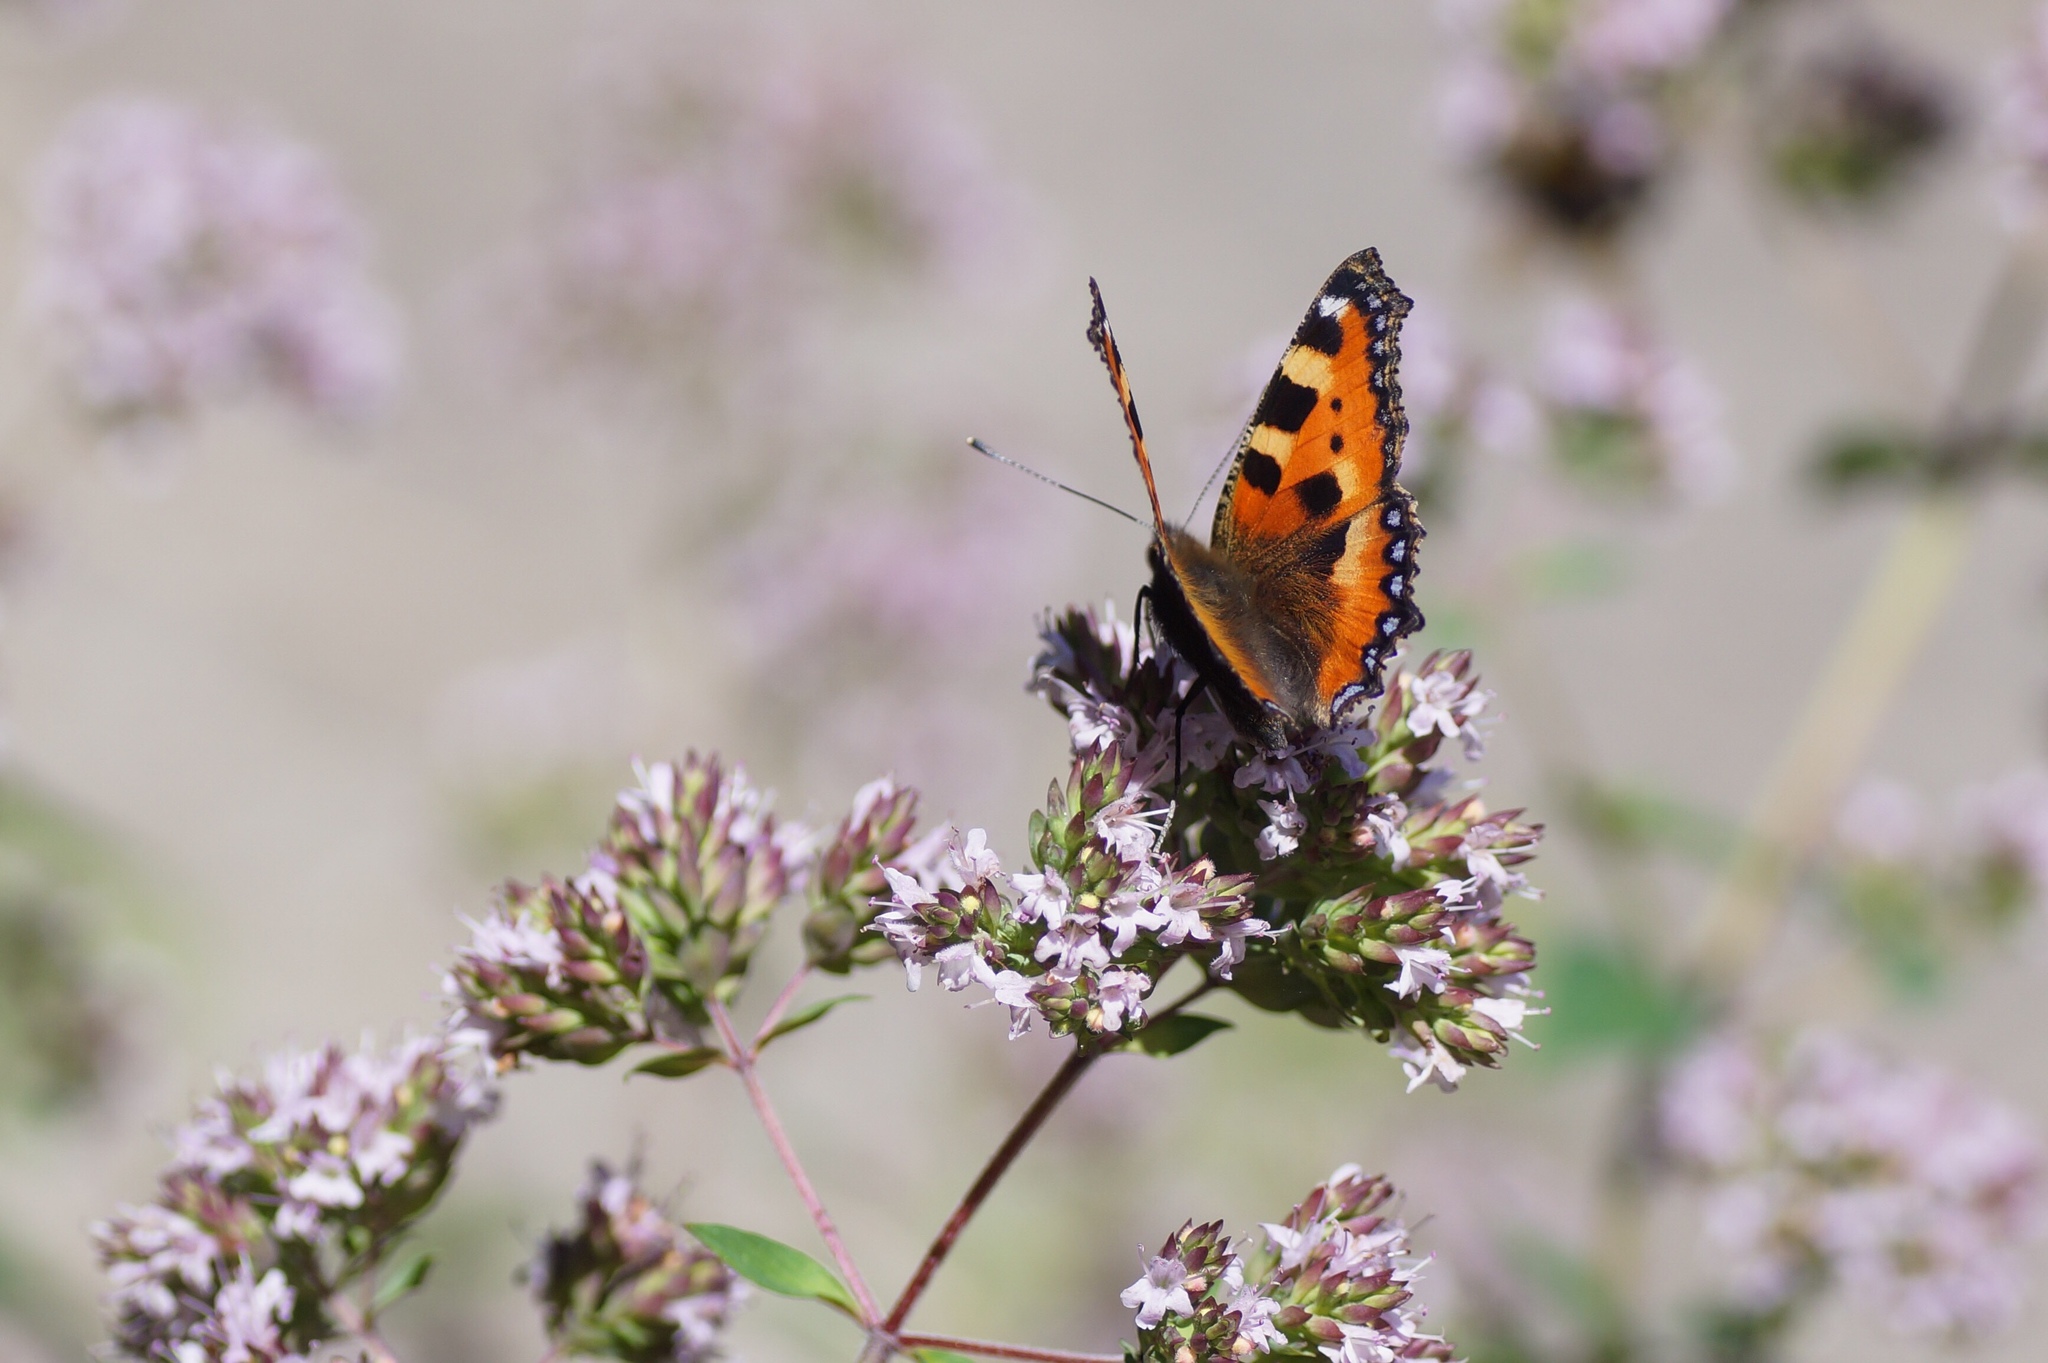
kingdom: Animalia
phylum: Arthropoda
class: Insecta
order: Lepidoptera
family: Nymphalidae
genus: Aglais
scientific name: Aglais urticae
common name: Small tortoiseshell
